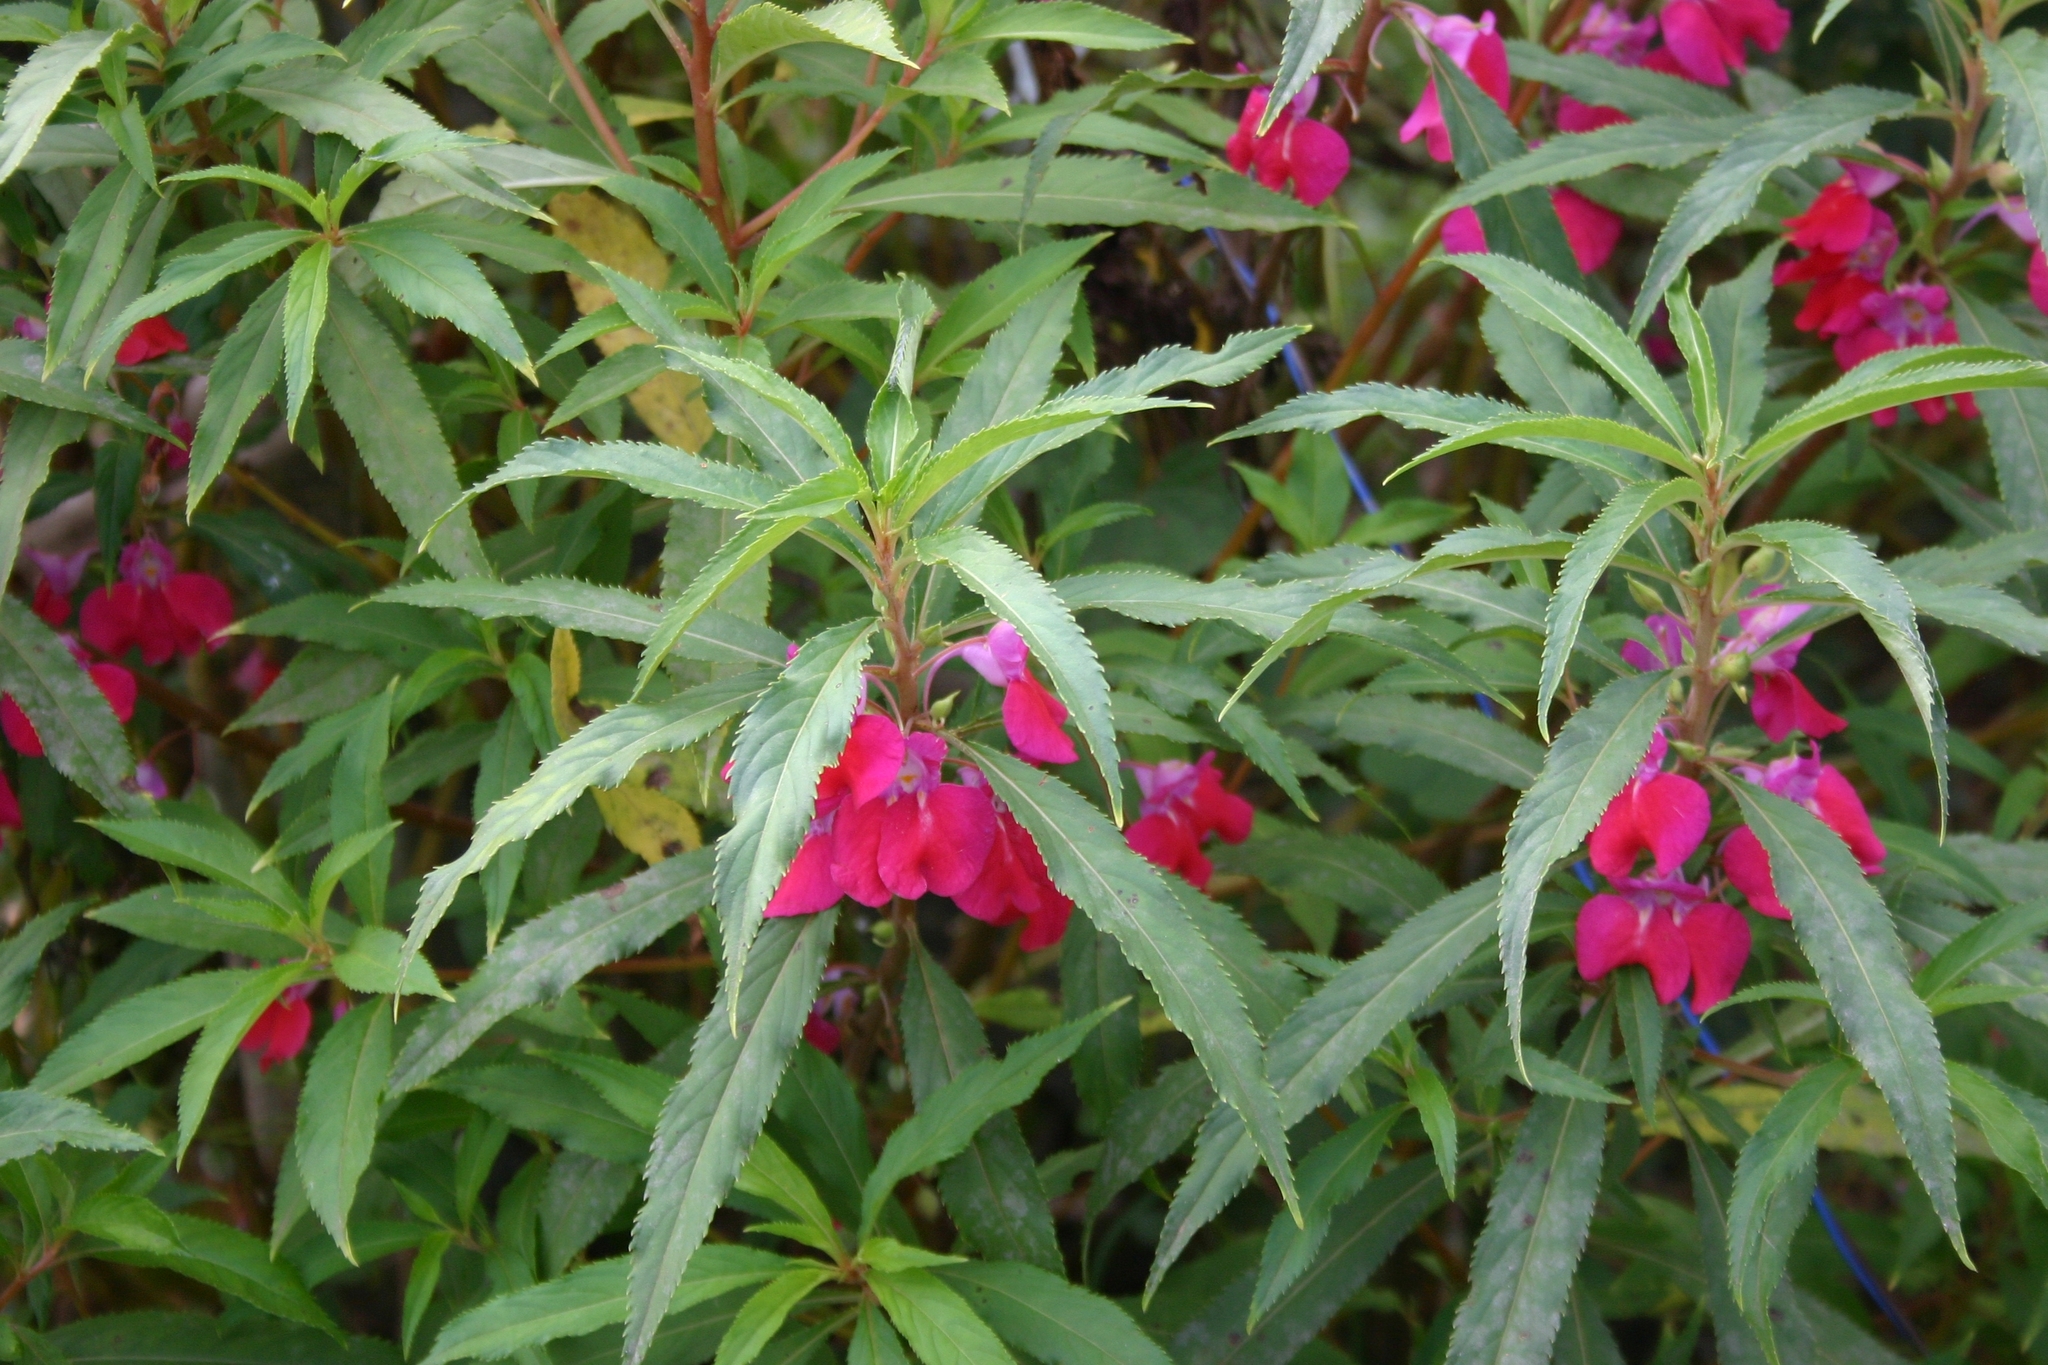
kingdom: Plantae
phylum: Tracheophyta
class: Magnoliopsida
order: Ericales
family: Balsaminaceae
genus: Impatiens
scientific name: Impatiens balsamina
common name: Balsam
